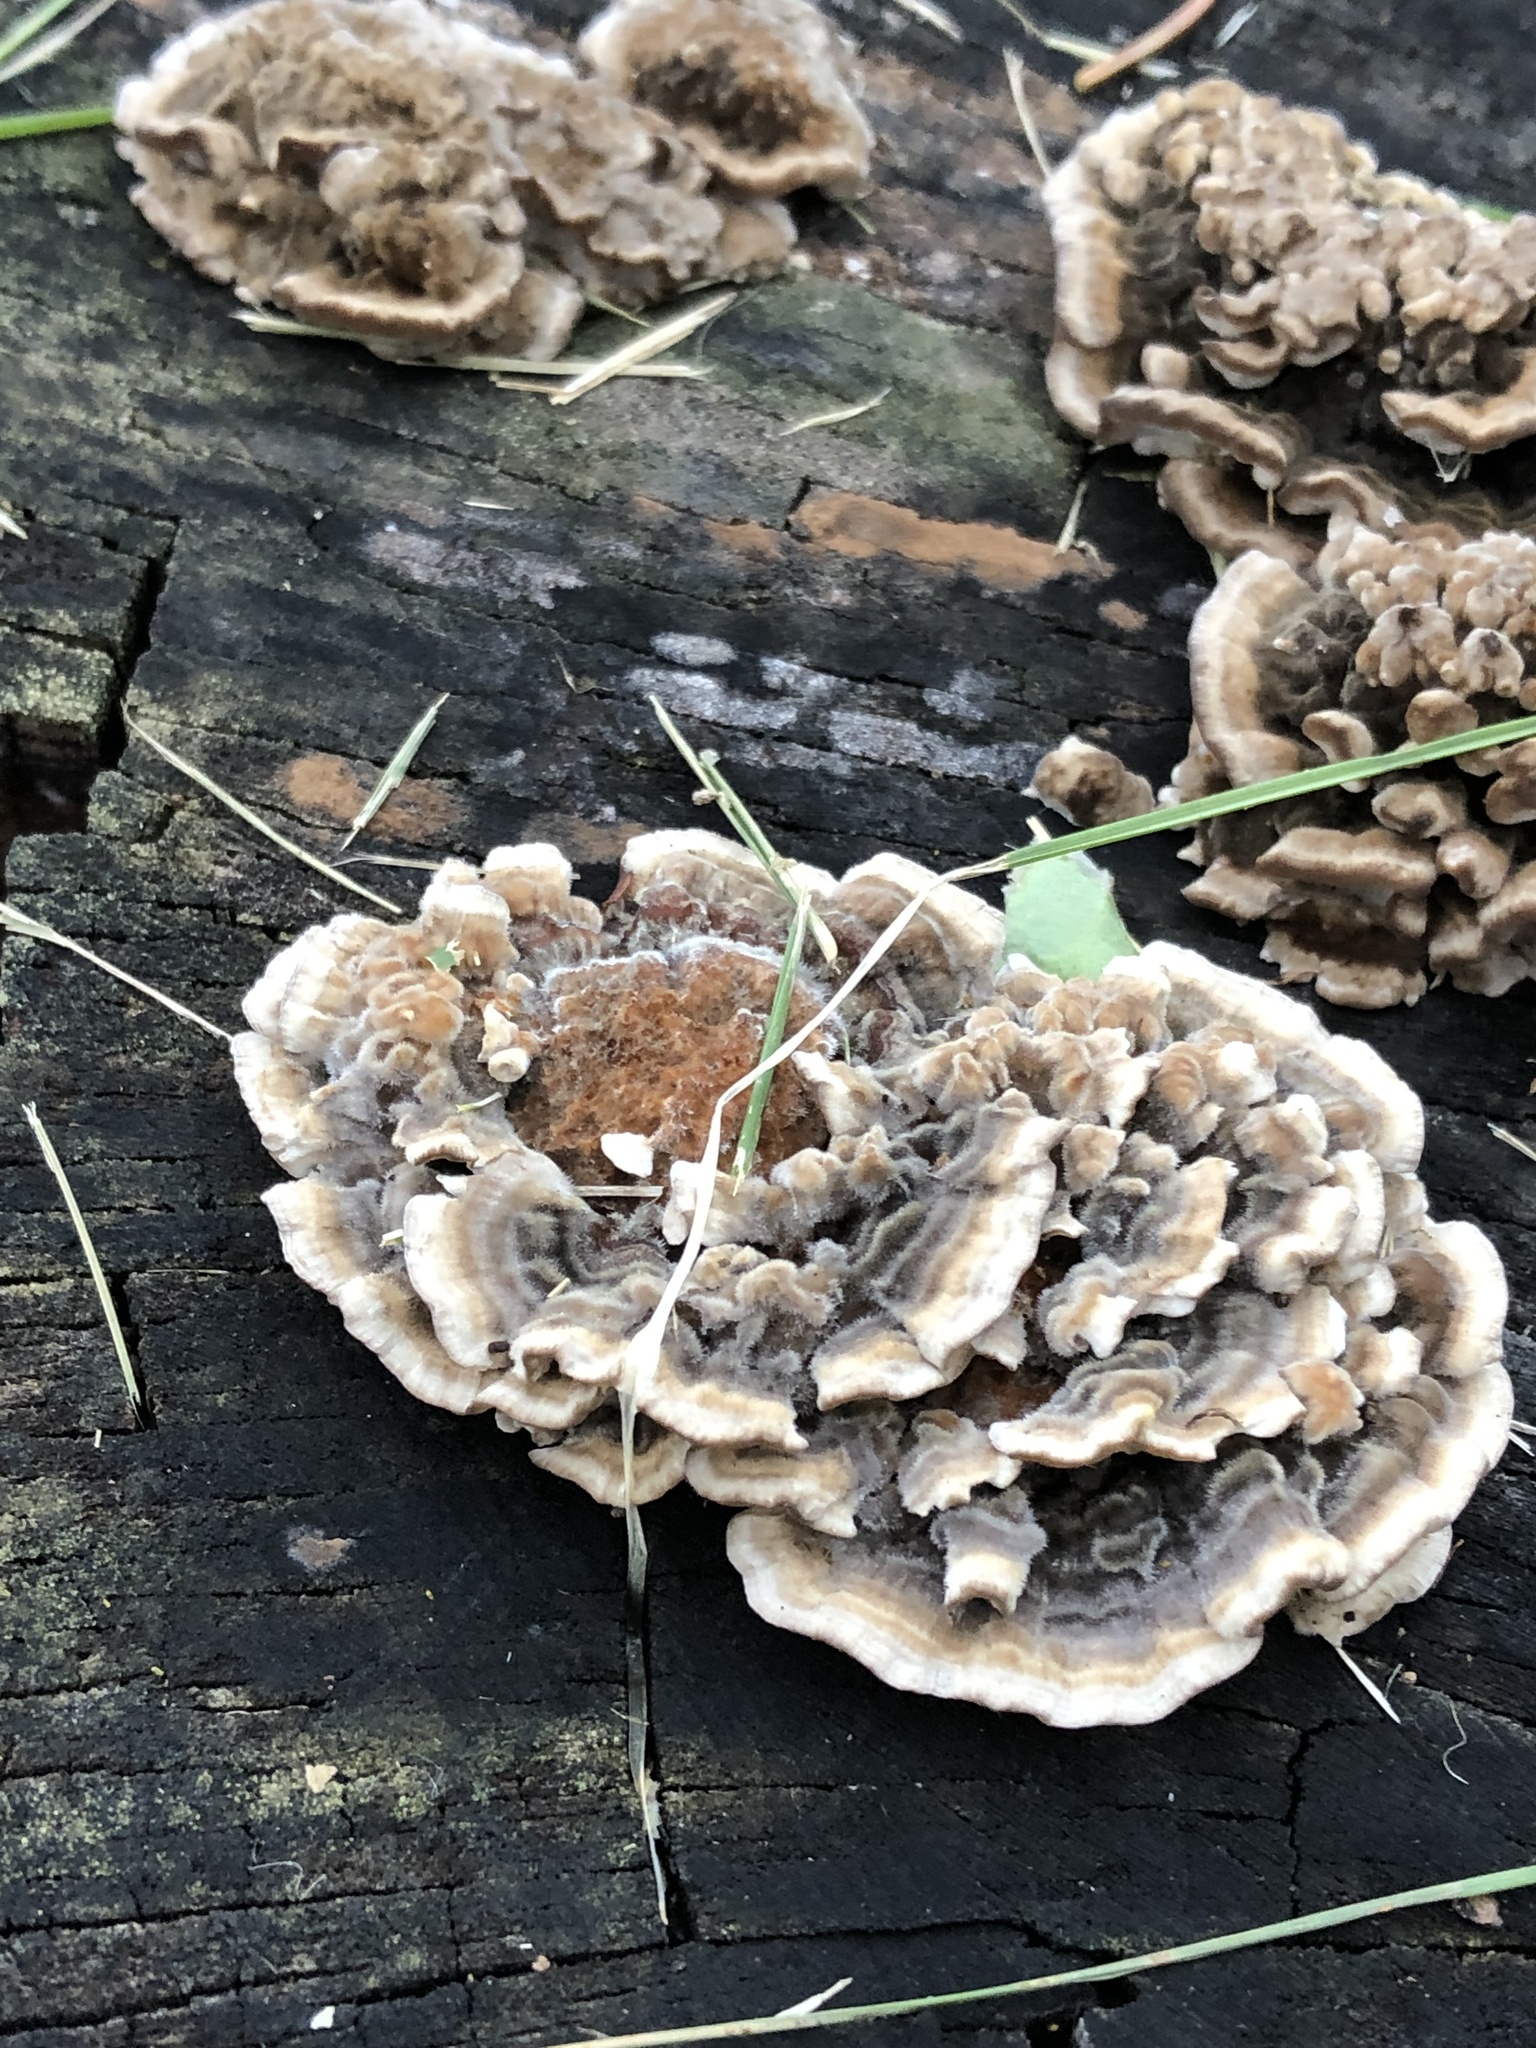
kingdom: Fungi
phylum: Basidiomycota
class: Agaricomycetes
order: Polyporales
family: Polyporaceae
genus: Trametes
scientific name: Trametes versicolor
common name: Turkeytail
